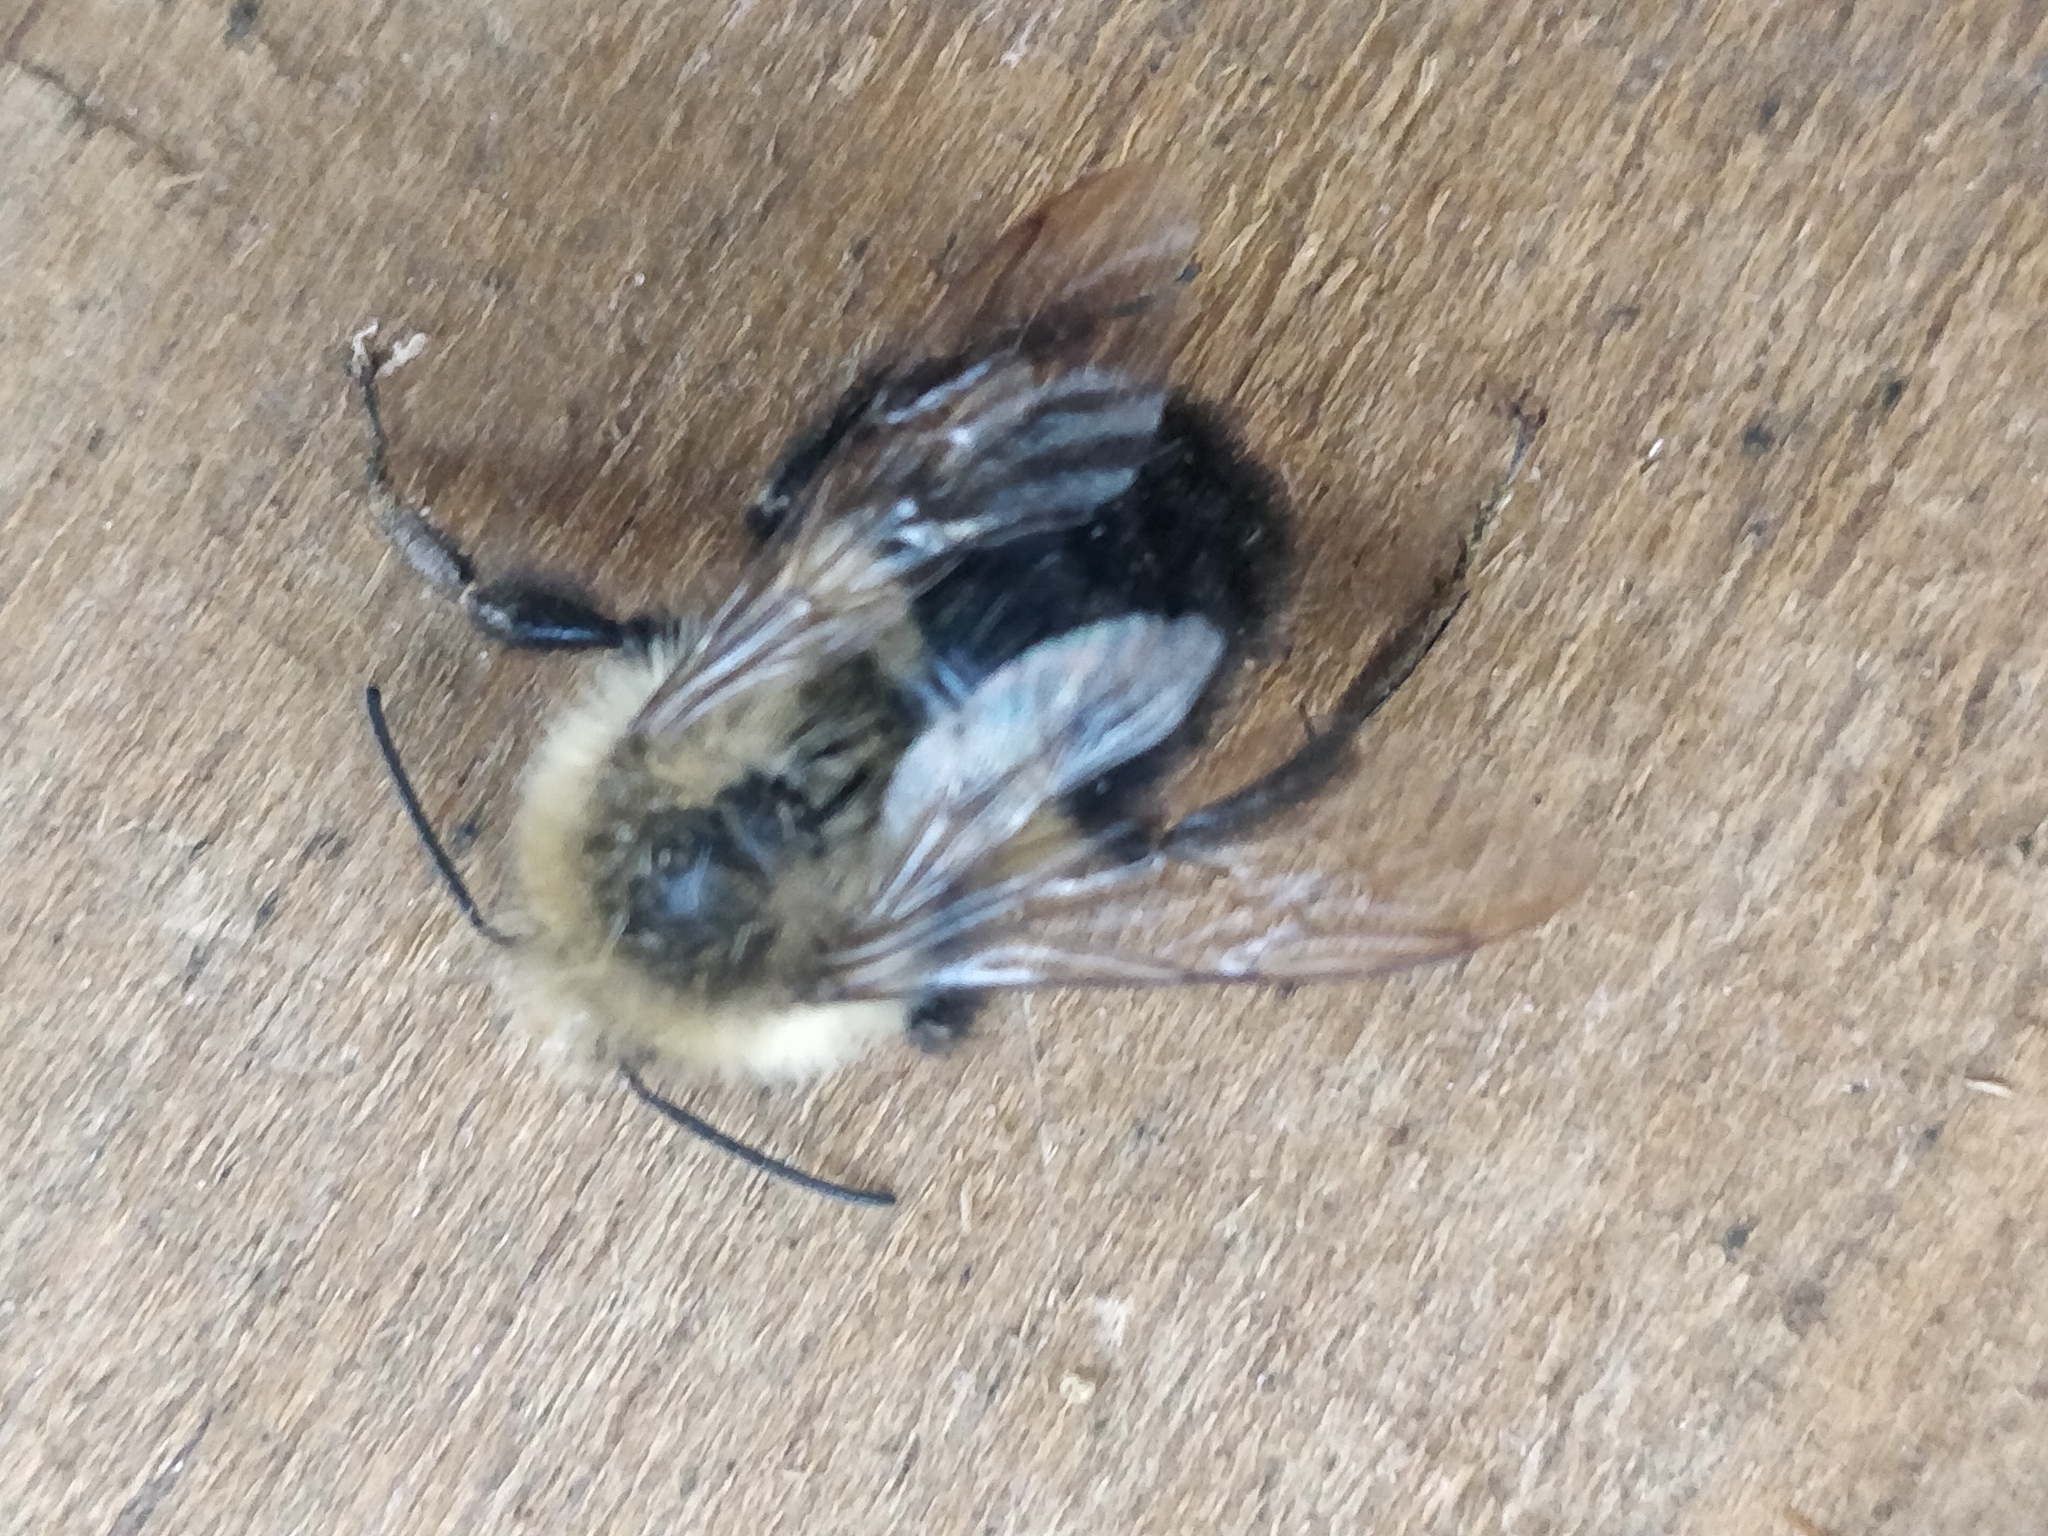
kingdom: Animalia
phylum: Arthropoda
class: Insecta
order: Hymenoptera
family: Apidae
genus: Bombus
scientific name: Bombus impatiens
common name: Common eastern bumble bee
